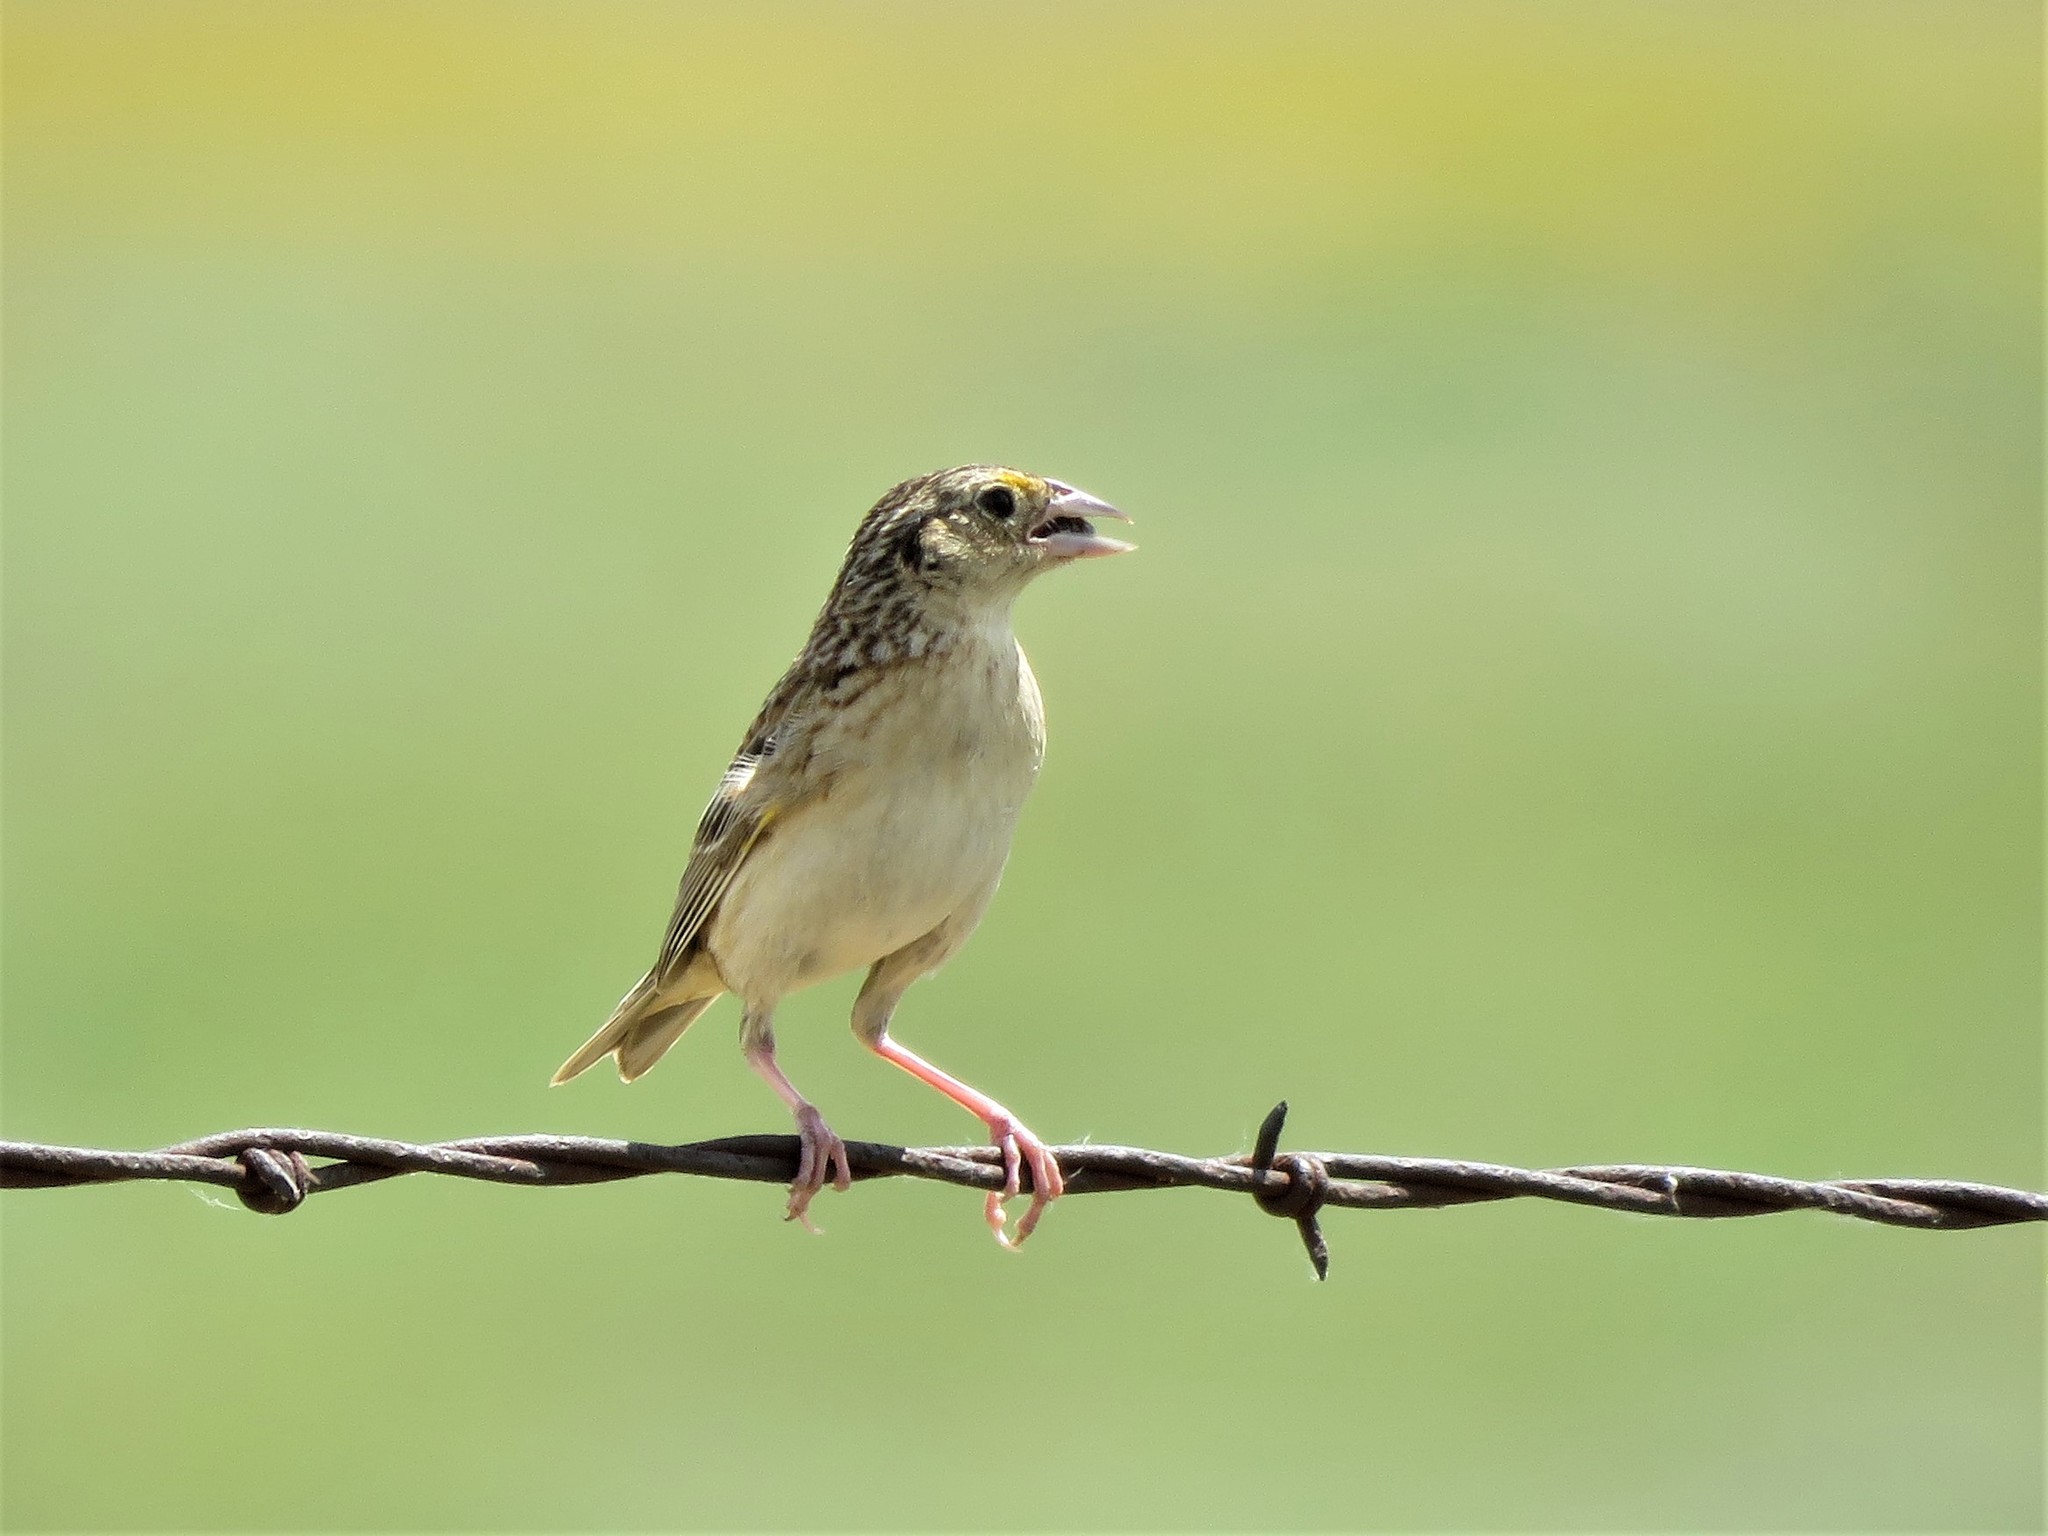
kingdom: Animalia
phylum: Chordata
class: Aves
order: Passeriformes
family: Passerellidae
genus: Ammodramus
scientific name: Ammodramus savannarum
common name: Grasshopper sparrow
